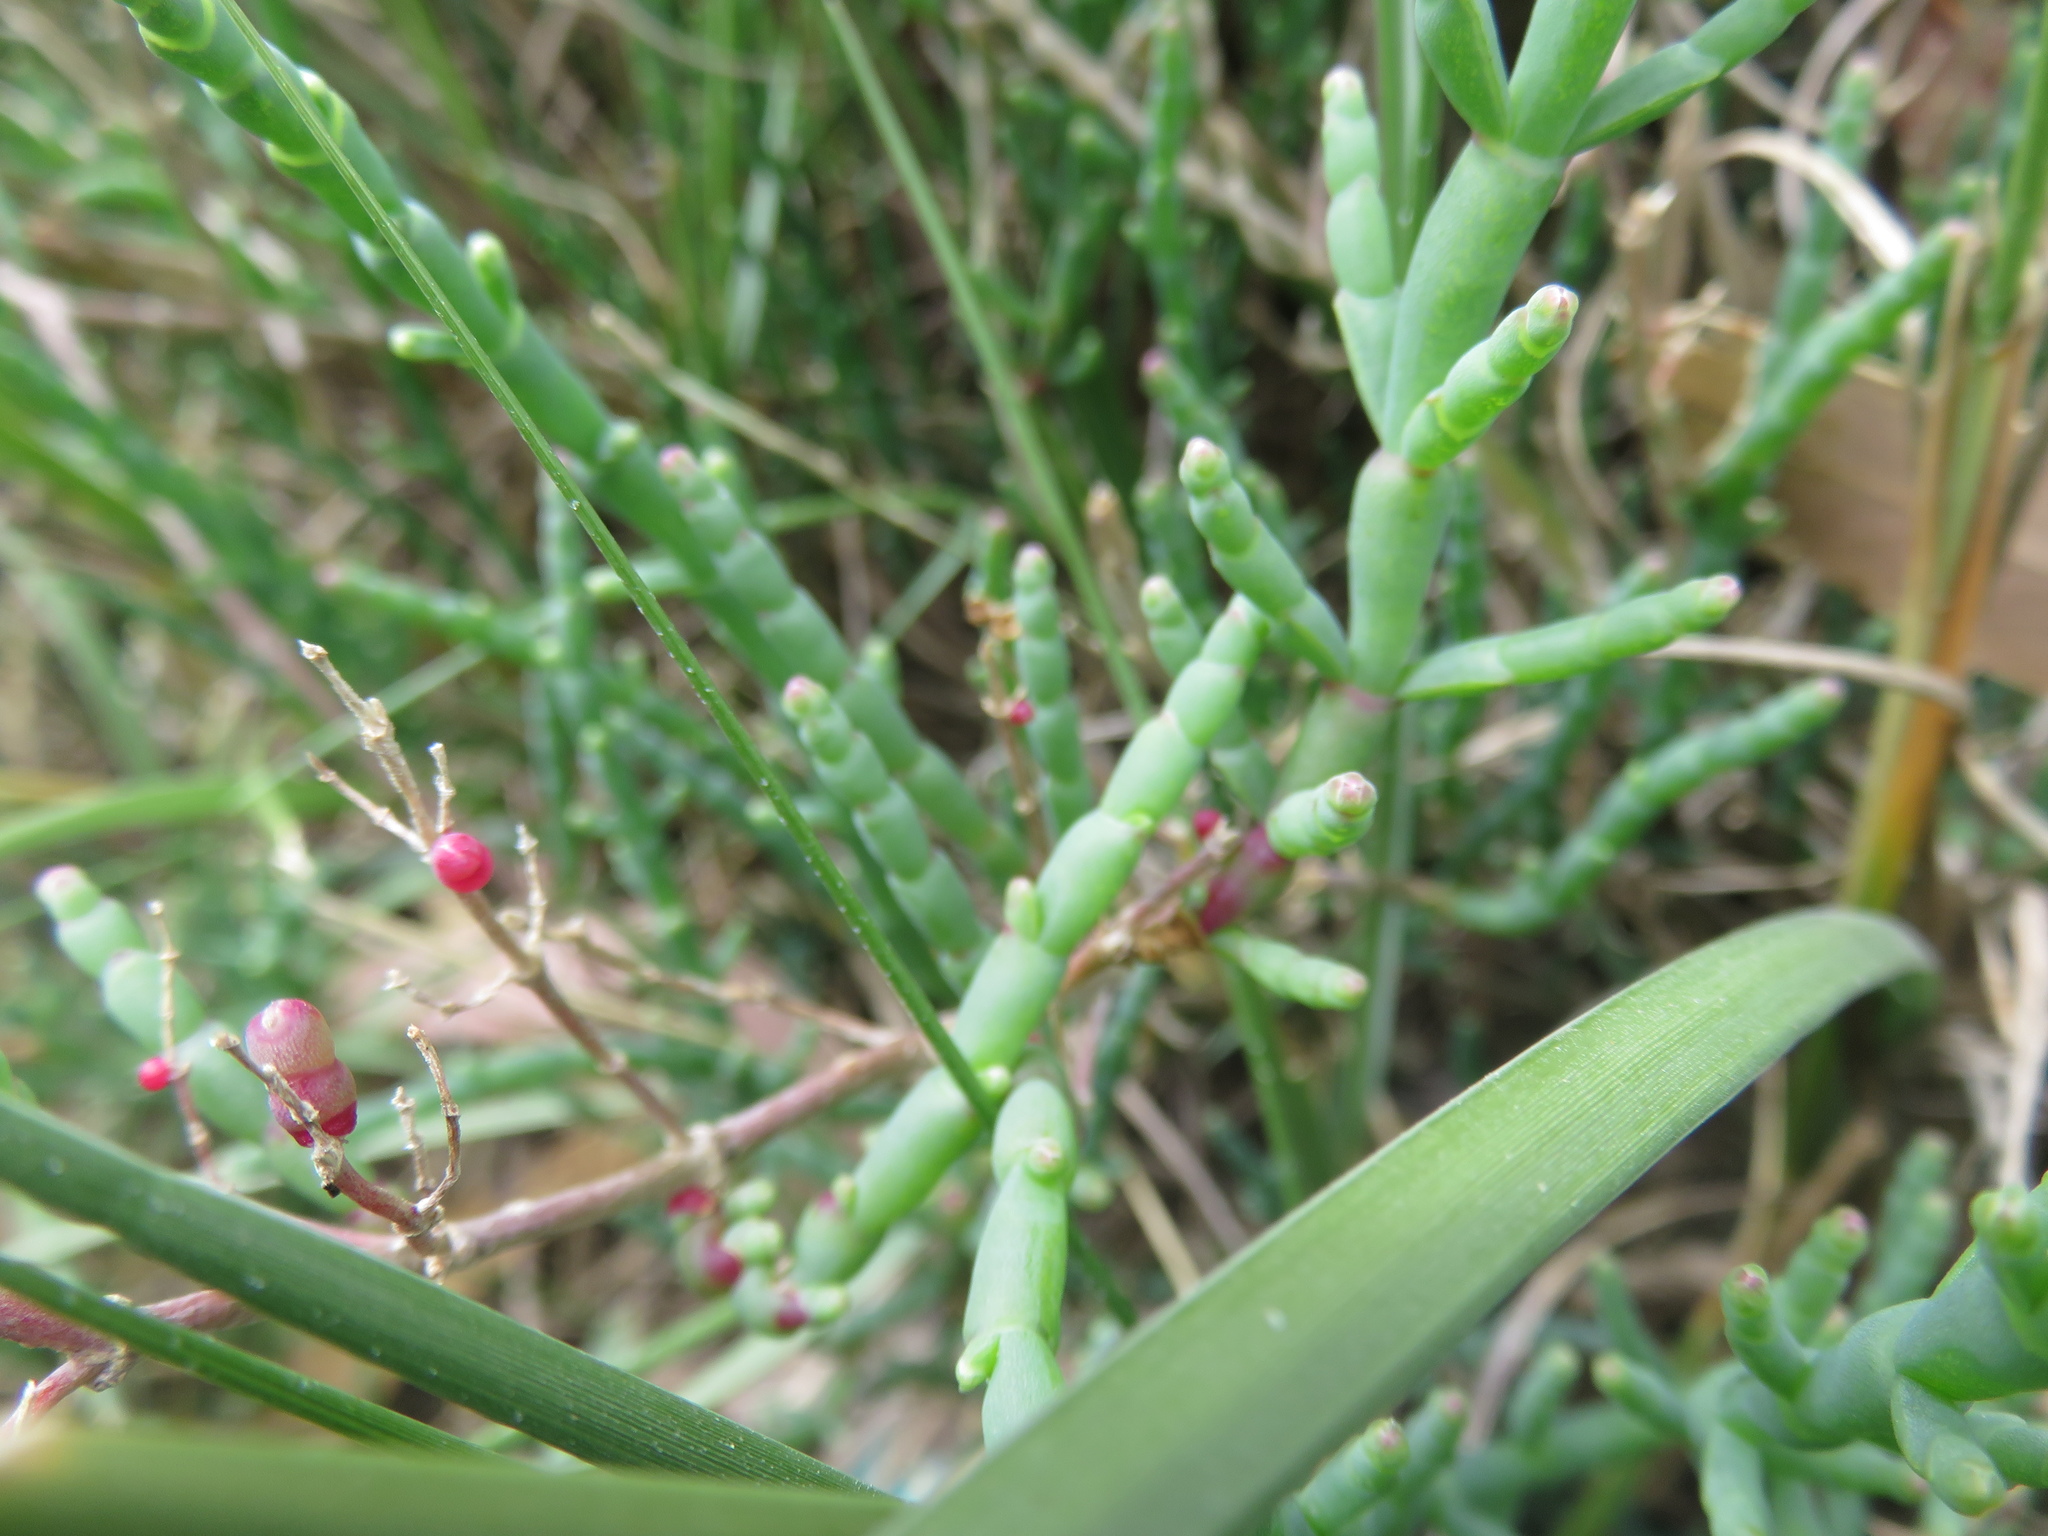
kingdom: Plantae
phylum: Tracheophyta
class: Magnoliopsida
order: Caryophyllales
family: Amaranthaceae
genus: Salicornia
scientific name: Salicornia neei
